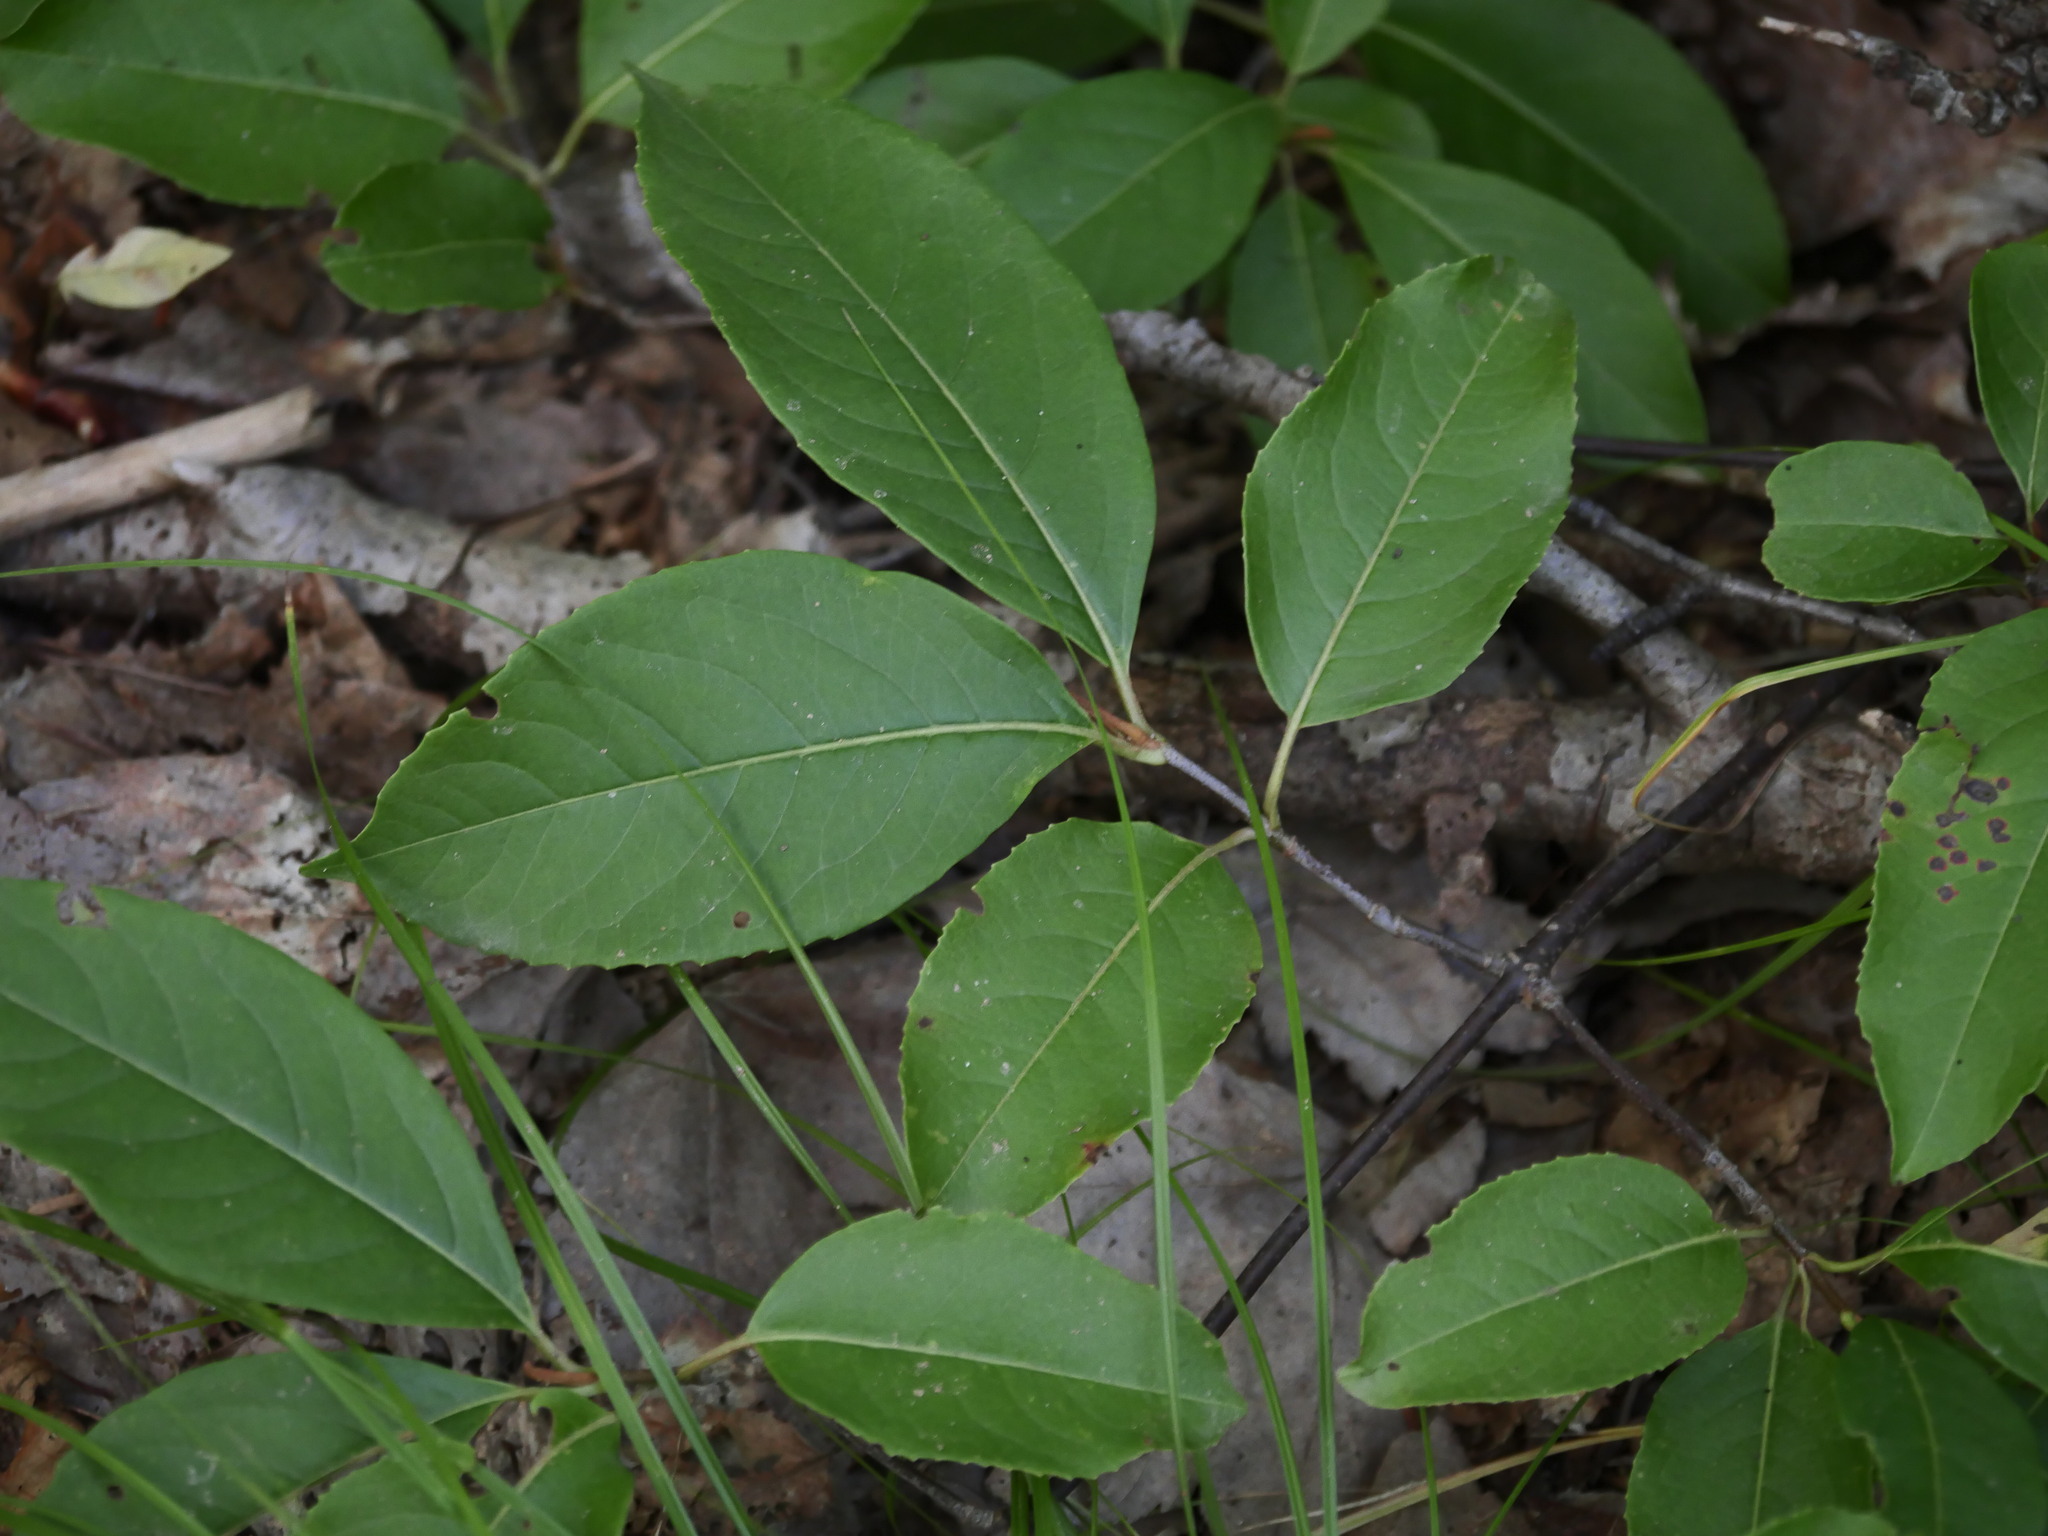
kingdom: Plantae
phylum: Tracheophyta
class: Magnoliopsida
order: Dipsacales
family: Viburnaceae
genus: Viburnum
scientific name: Viburnum cassinoides
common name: Swamp haw
